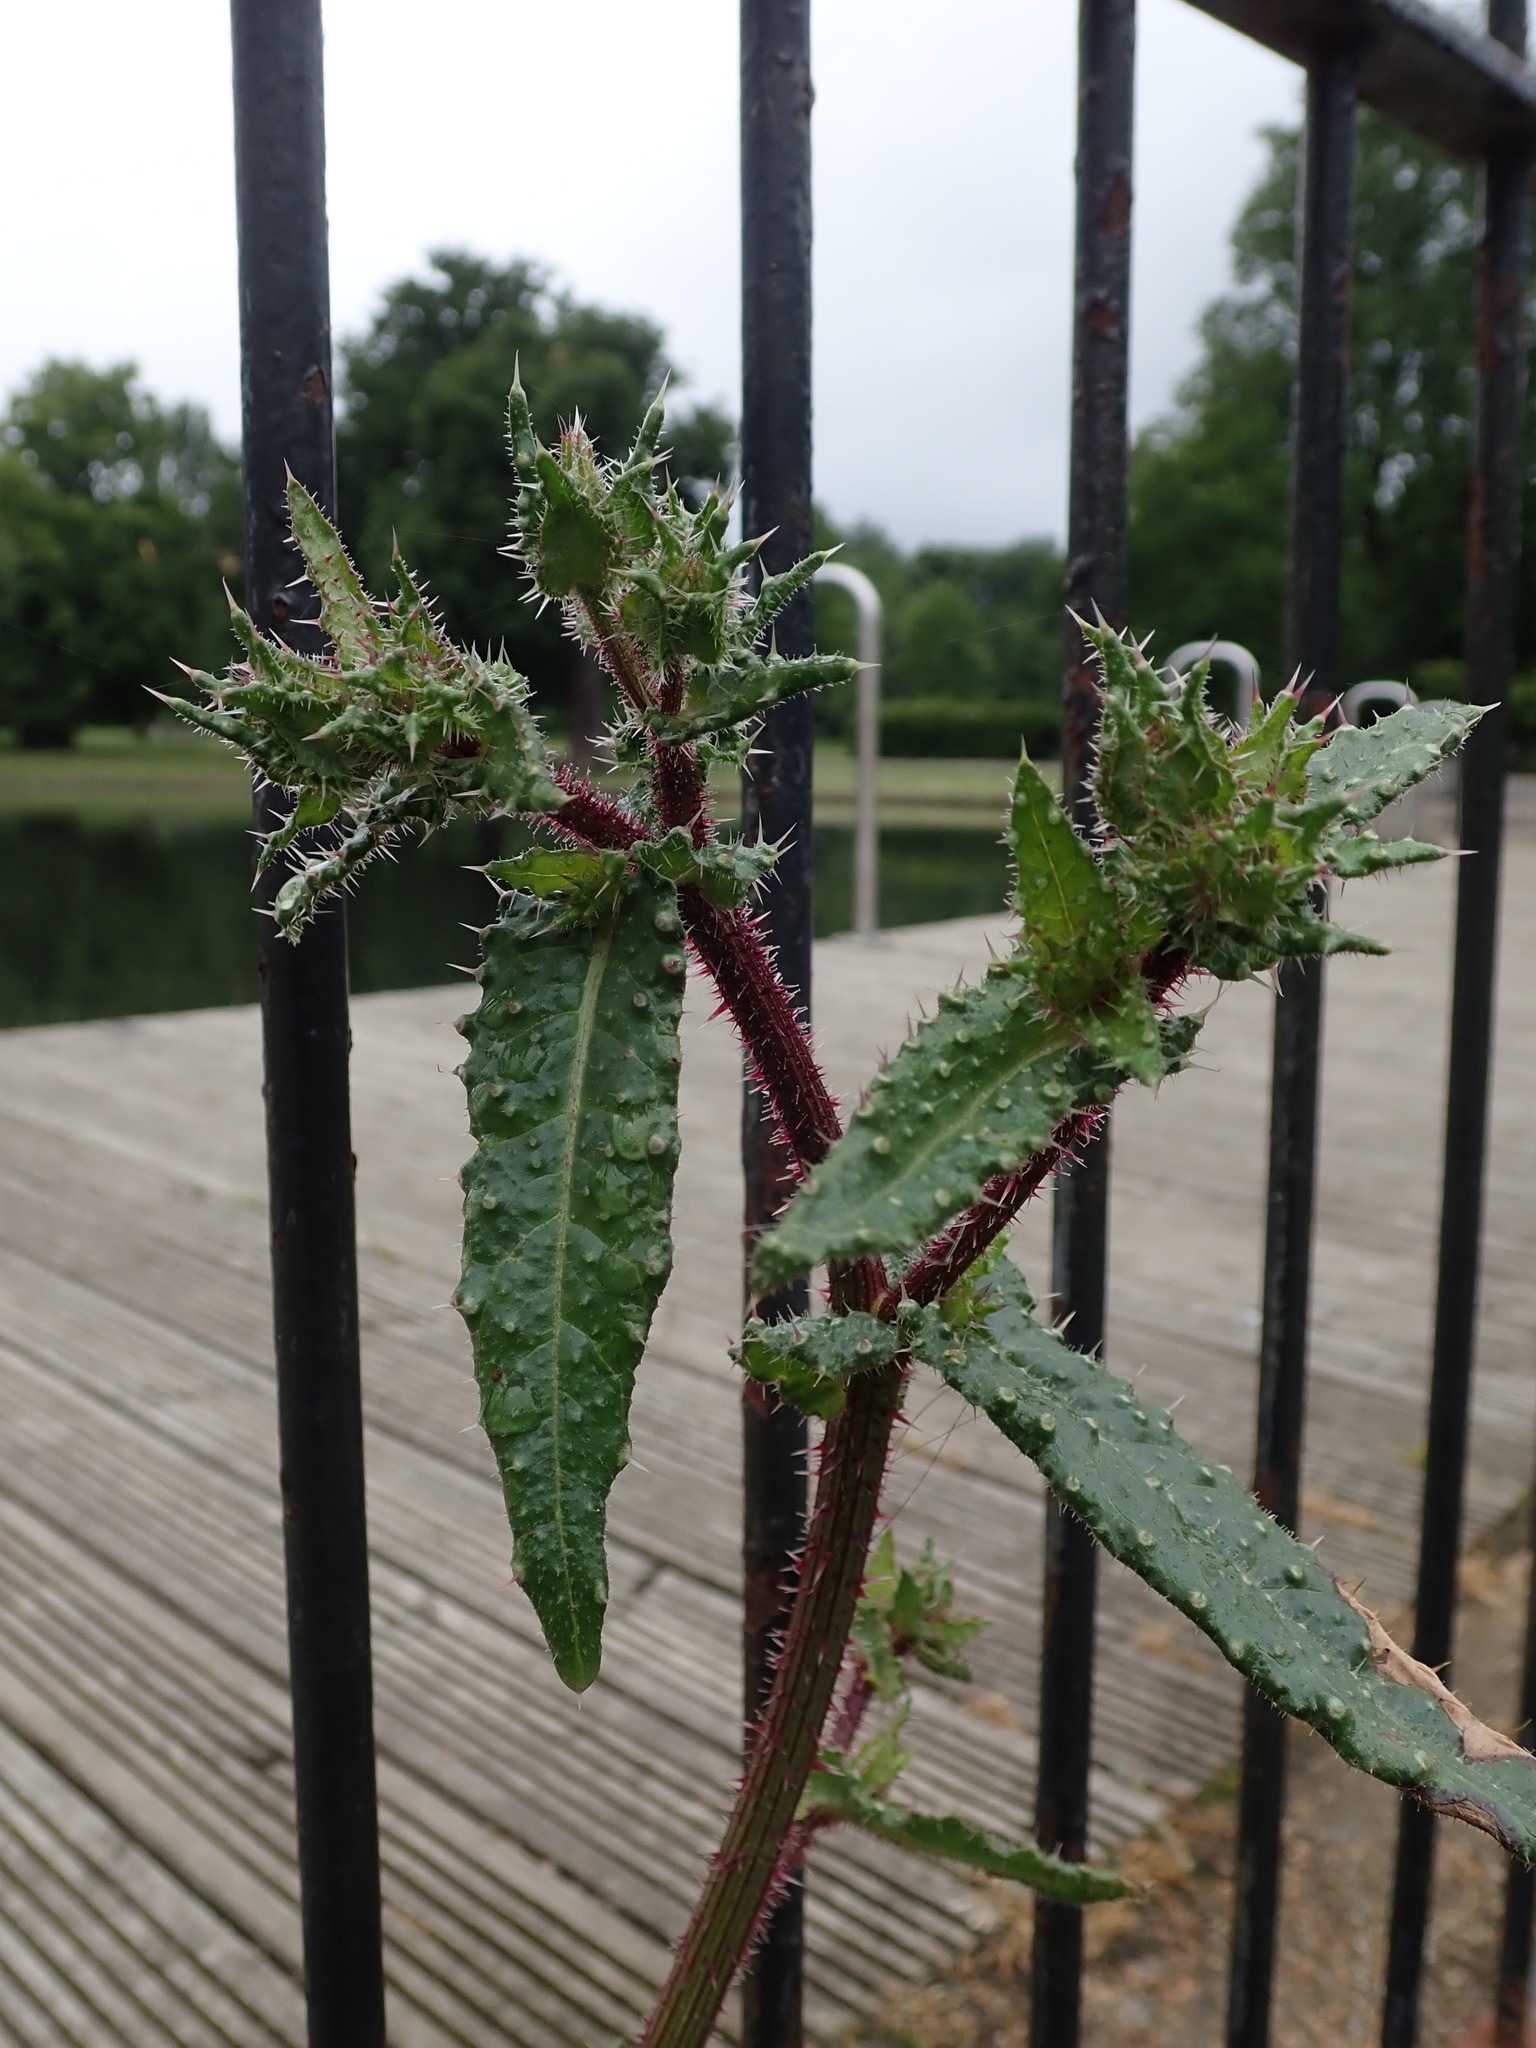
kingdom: Plantae
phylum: Tracheophyta
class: Magnoliopsida
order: Asterales
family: Asteraceae
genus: Helminthotheca
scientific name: Helminthotheca echioides
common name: Ox-tongue
